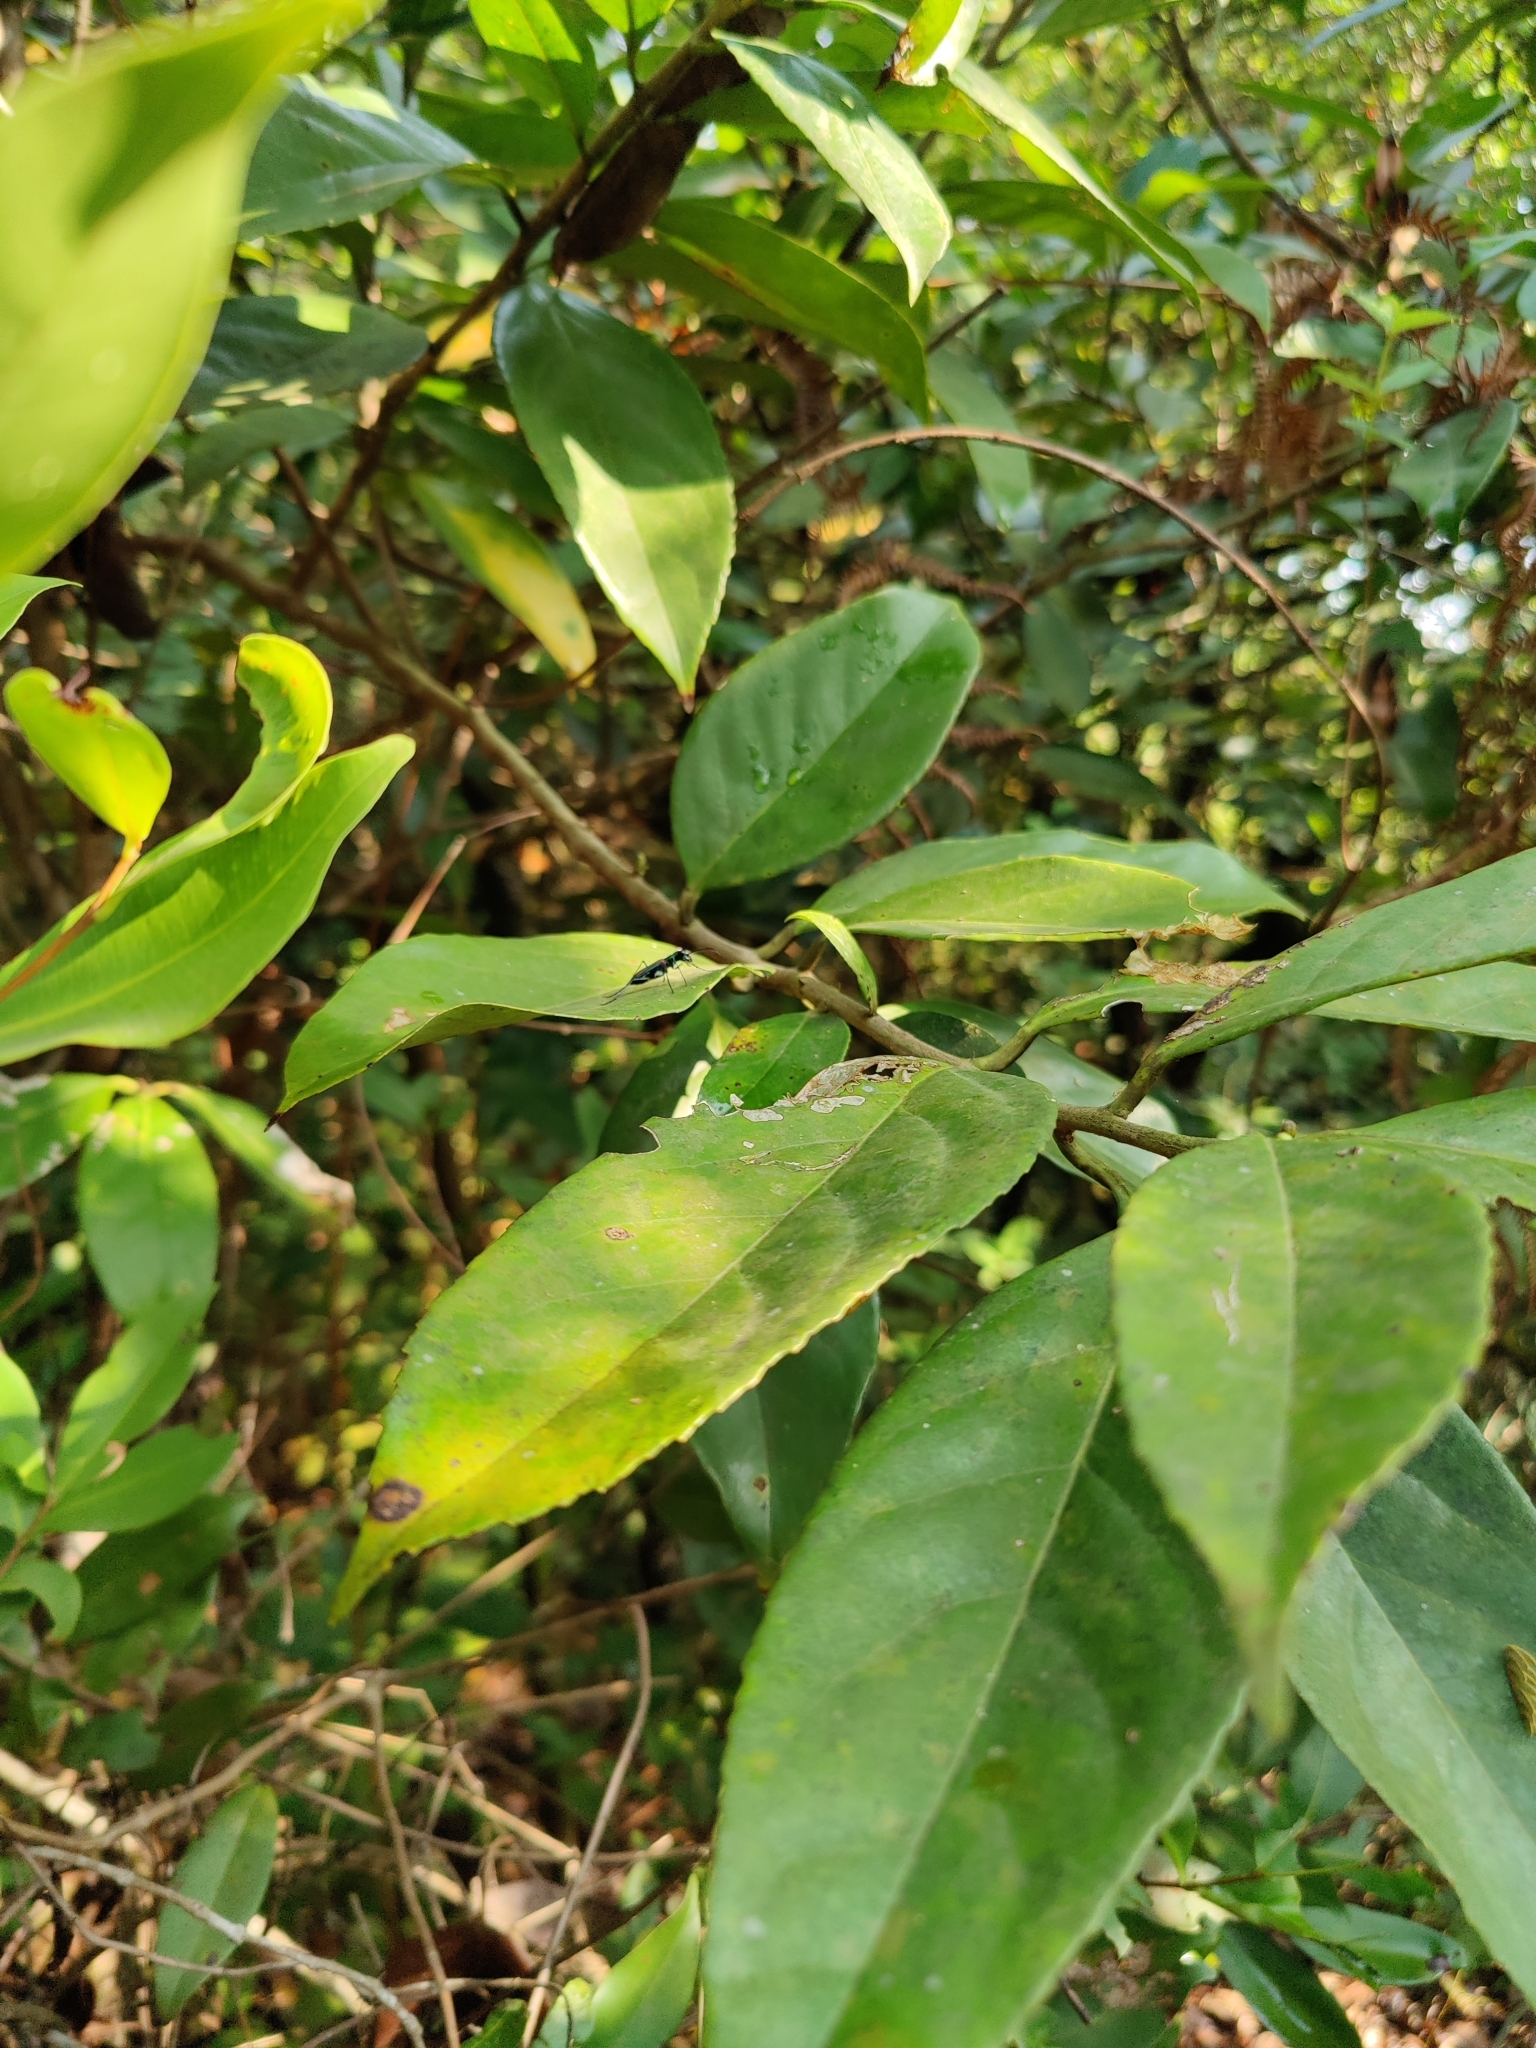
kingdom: Animalia
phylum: Arthropoda
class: Insecta
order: Coleoptera
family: Carabidae
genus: Cicindela
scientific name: Cicindela andrewesi
